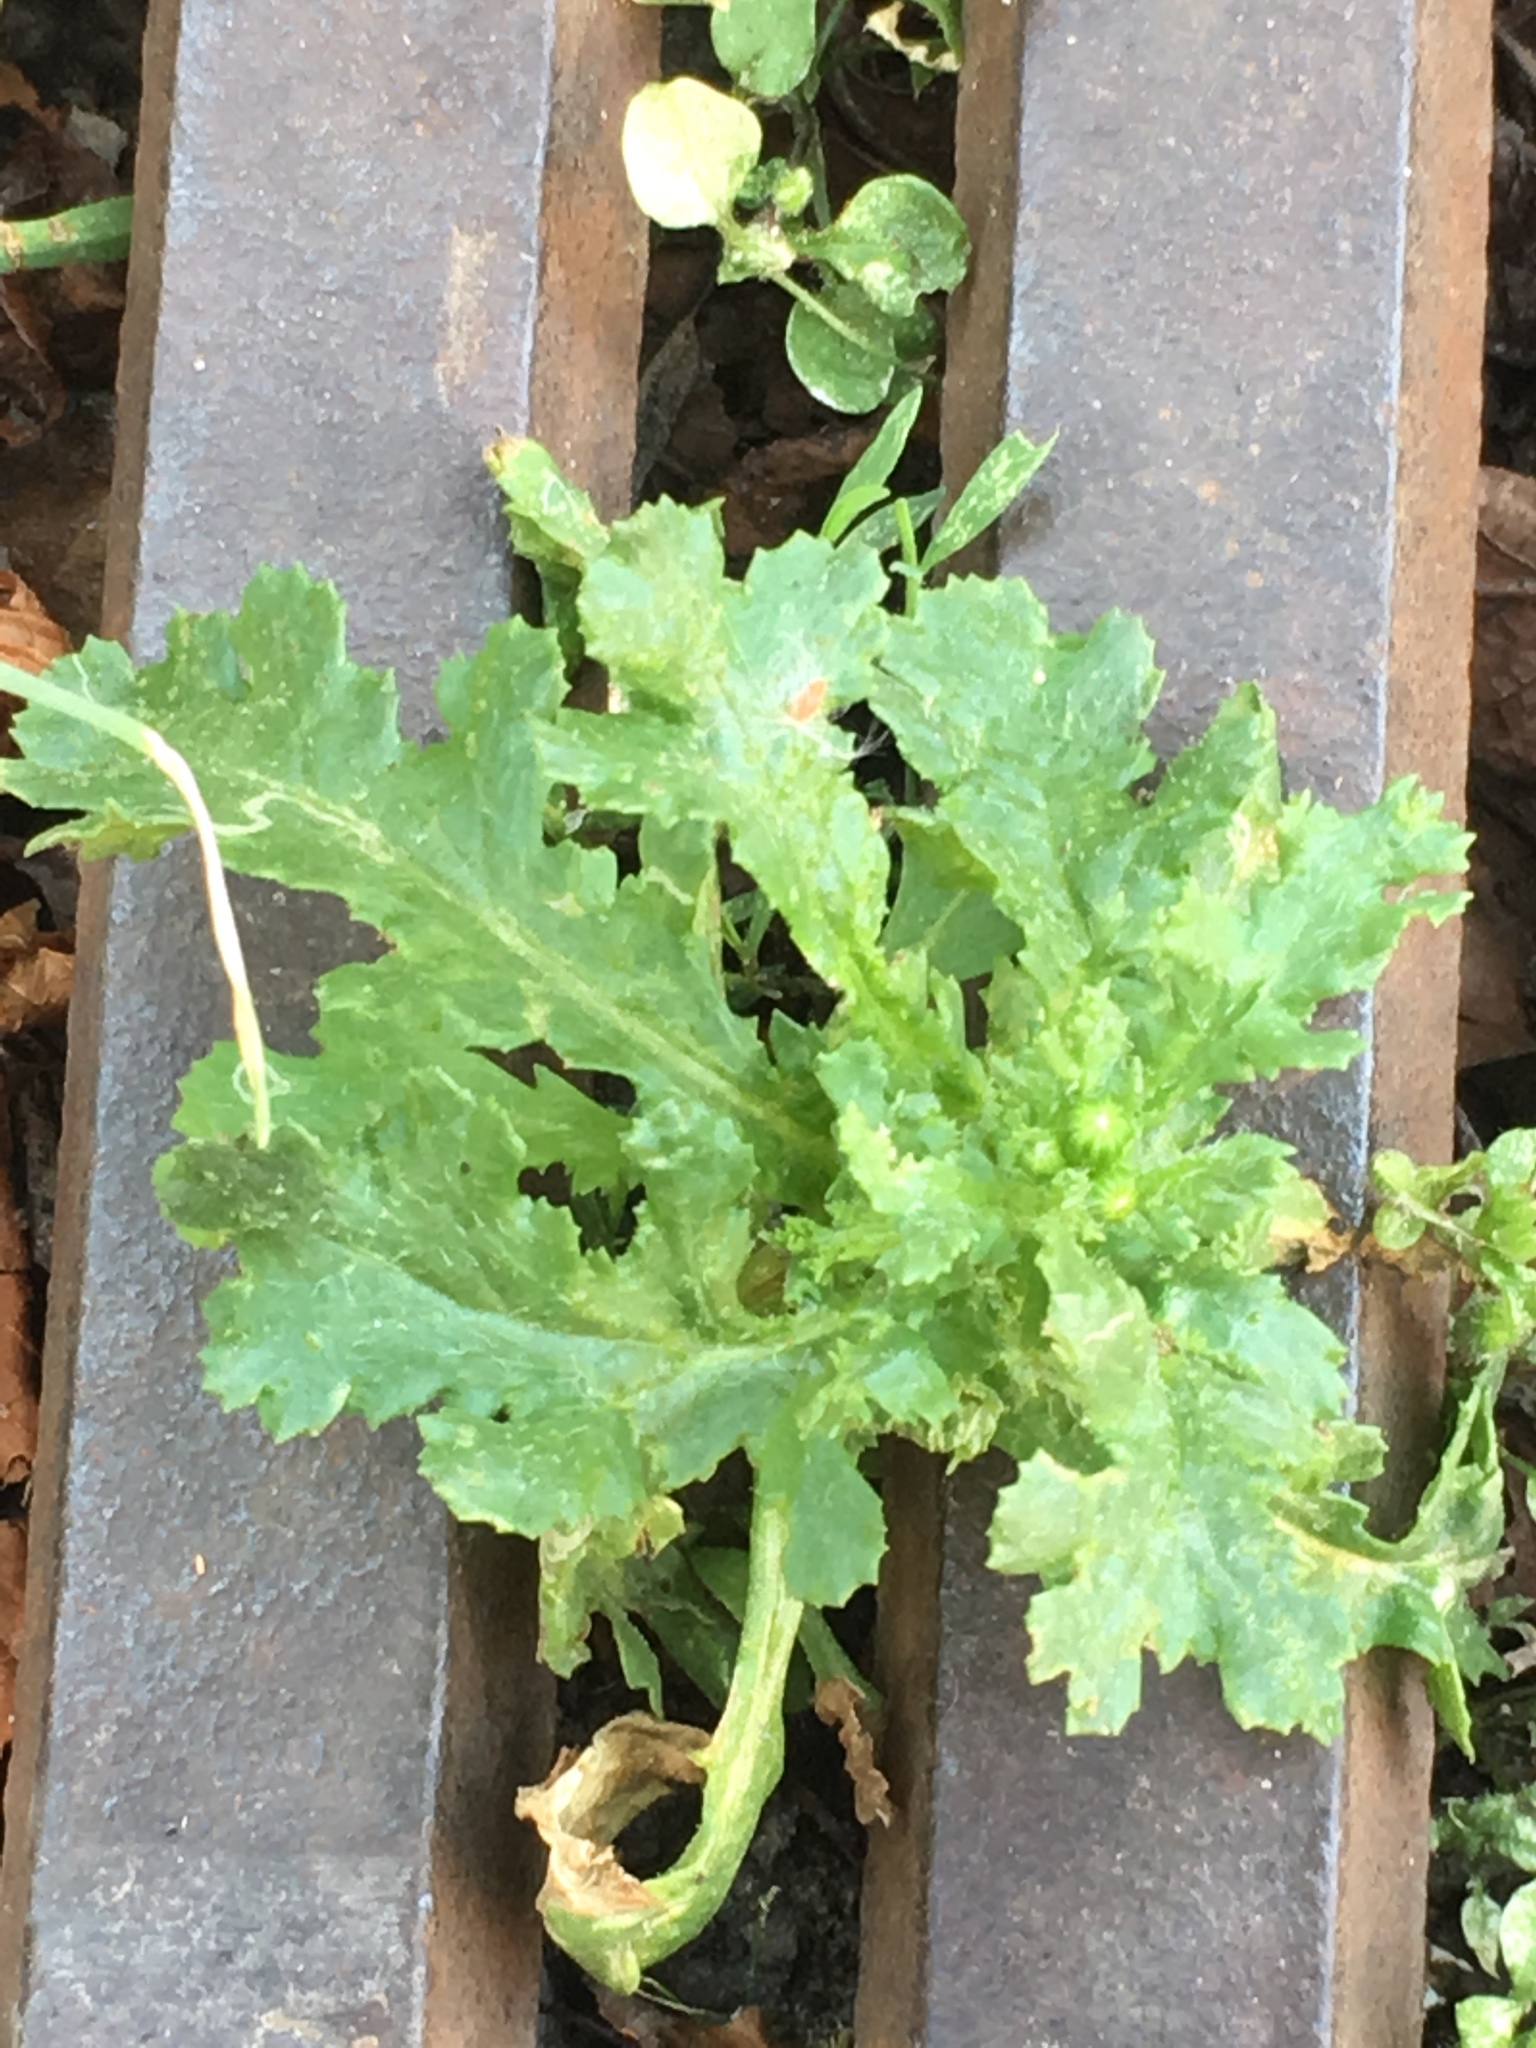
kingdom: Plantae
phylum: Tracheophyta
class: Magnoliopsida
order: Asterales
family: Asteraceae
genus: Senecio
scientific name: Senecio vulgaris
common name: Old-man-in-the-spring
